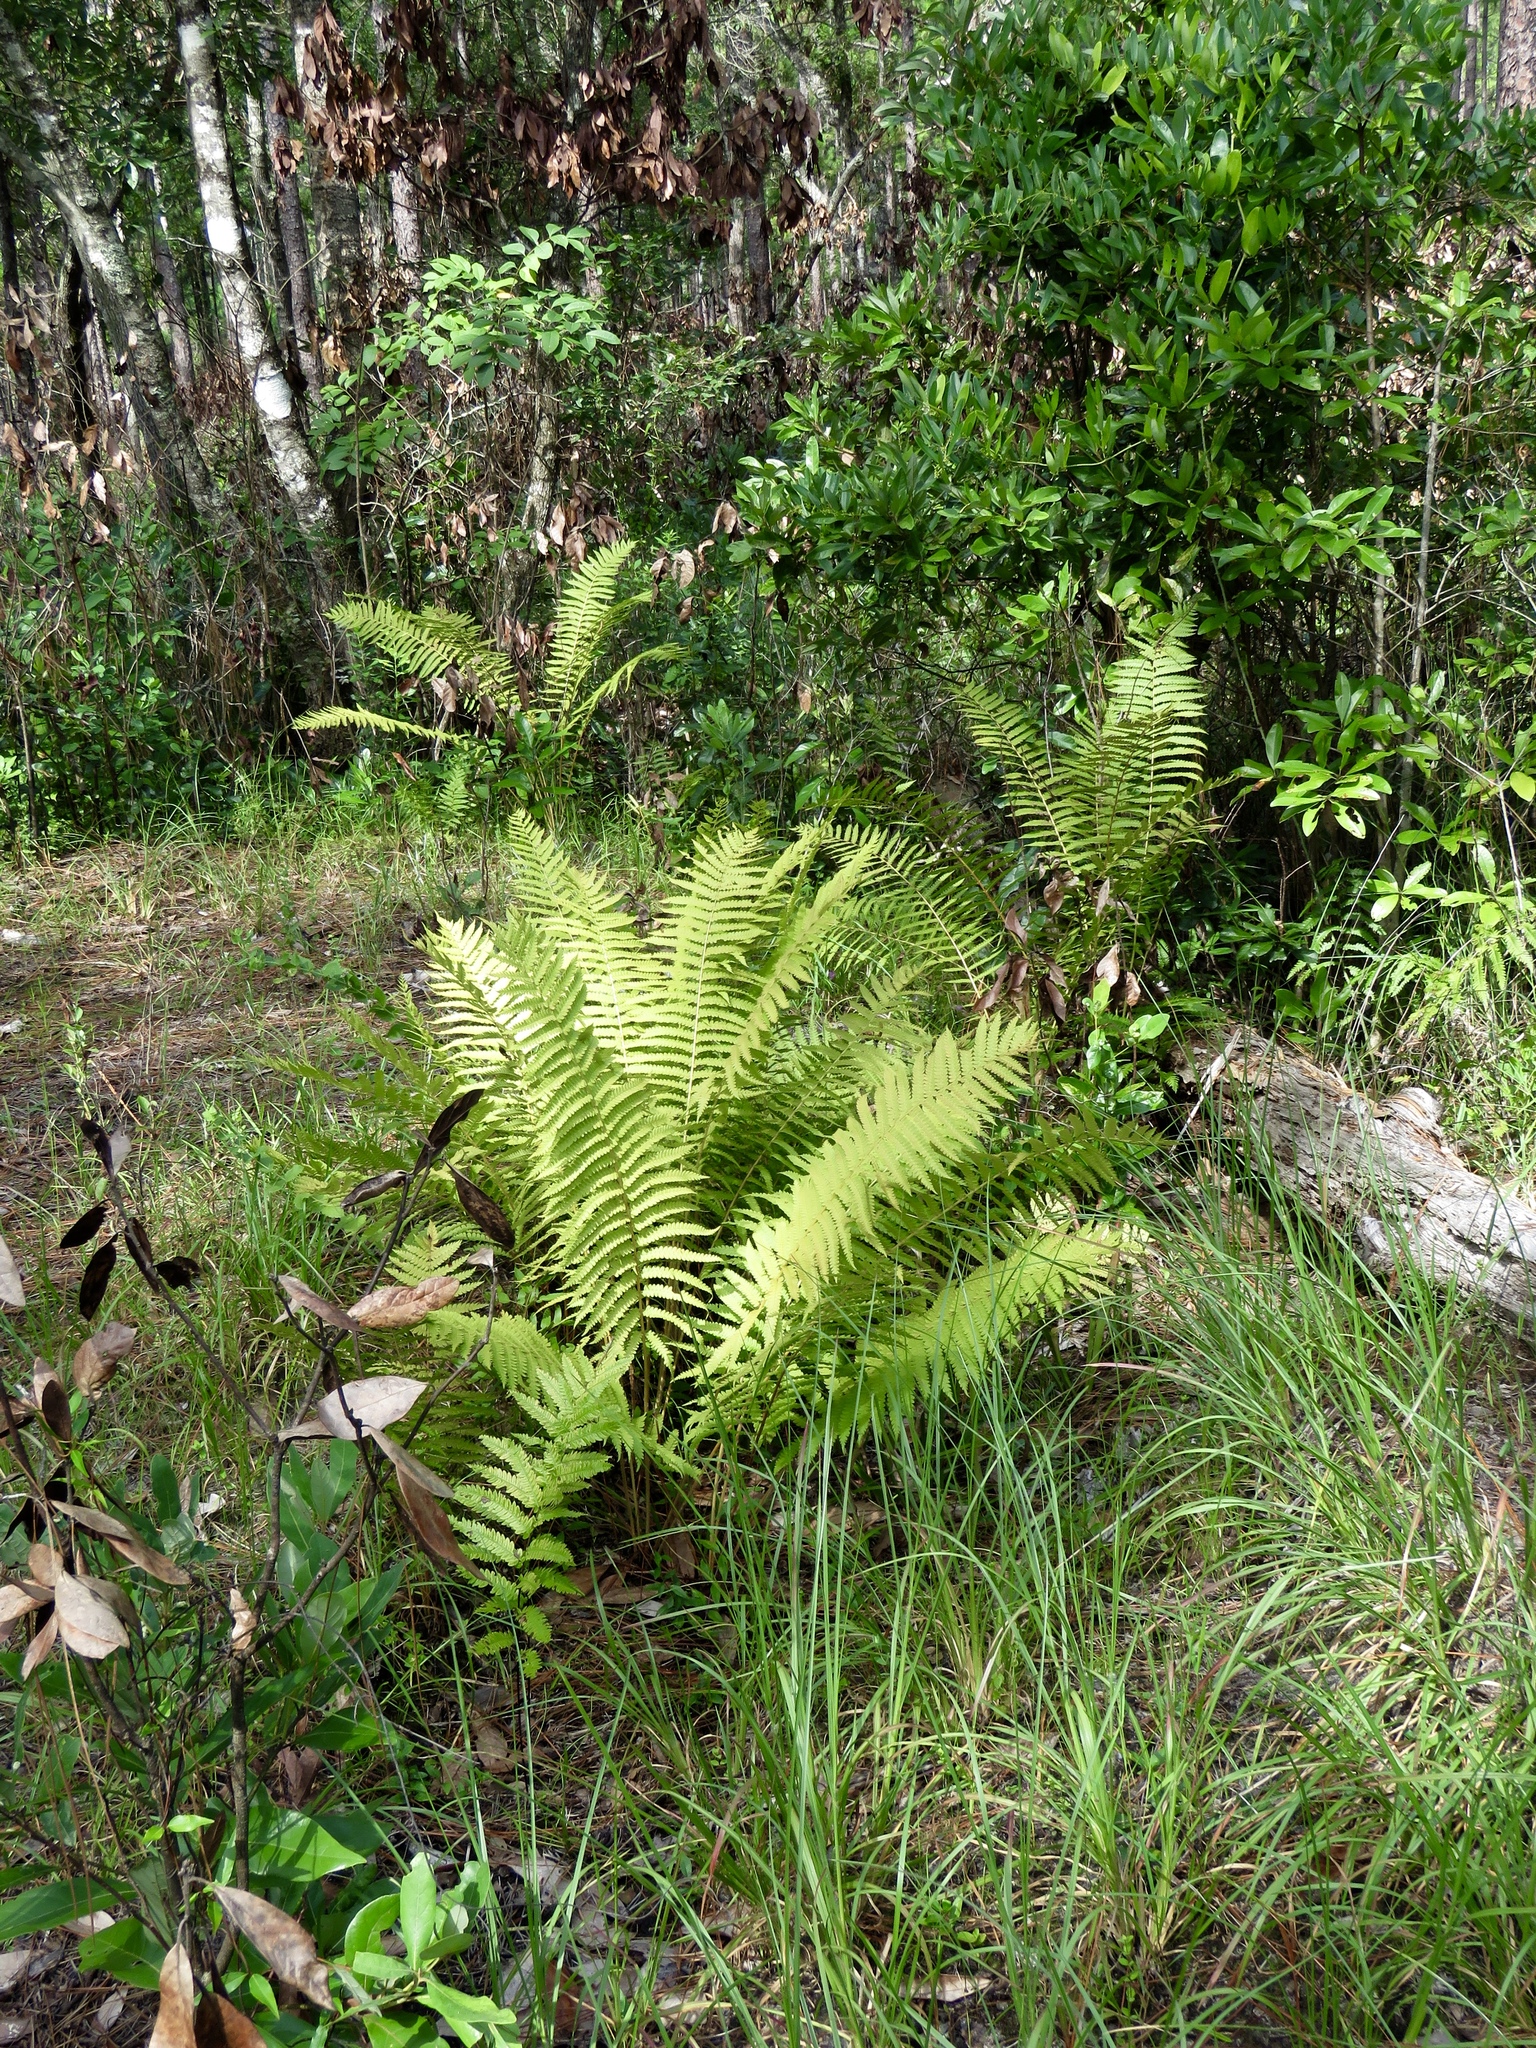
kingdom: Plantae
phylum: Tracheophyta
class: Polypodiopsida
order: Osmundales
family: Osmundaceae
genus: Osmundastrum
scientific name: Osmundastrum cinnamomeum
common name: Cinnamon fern
